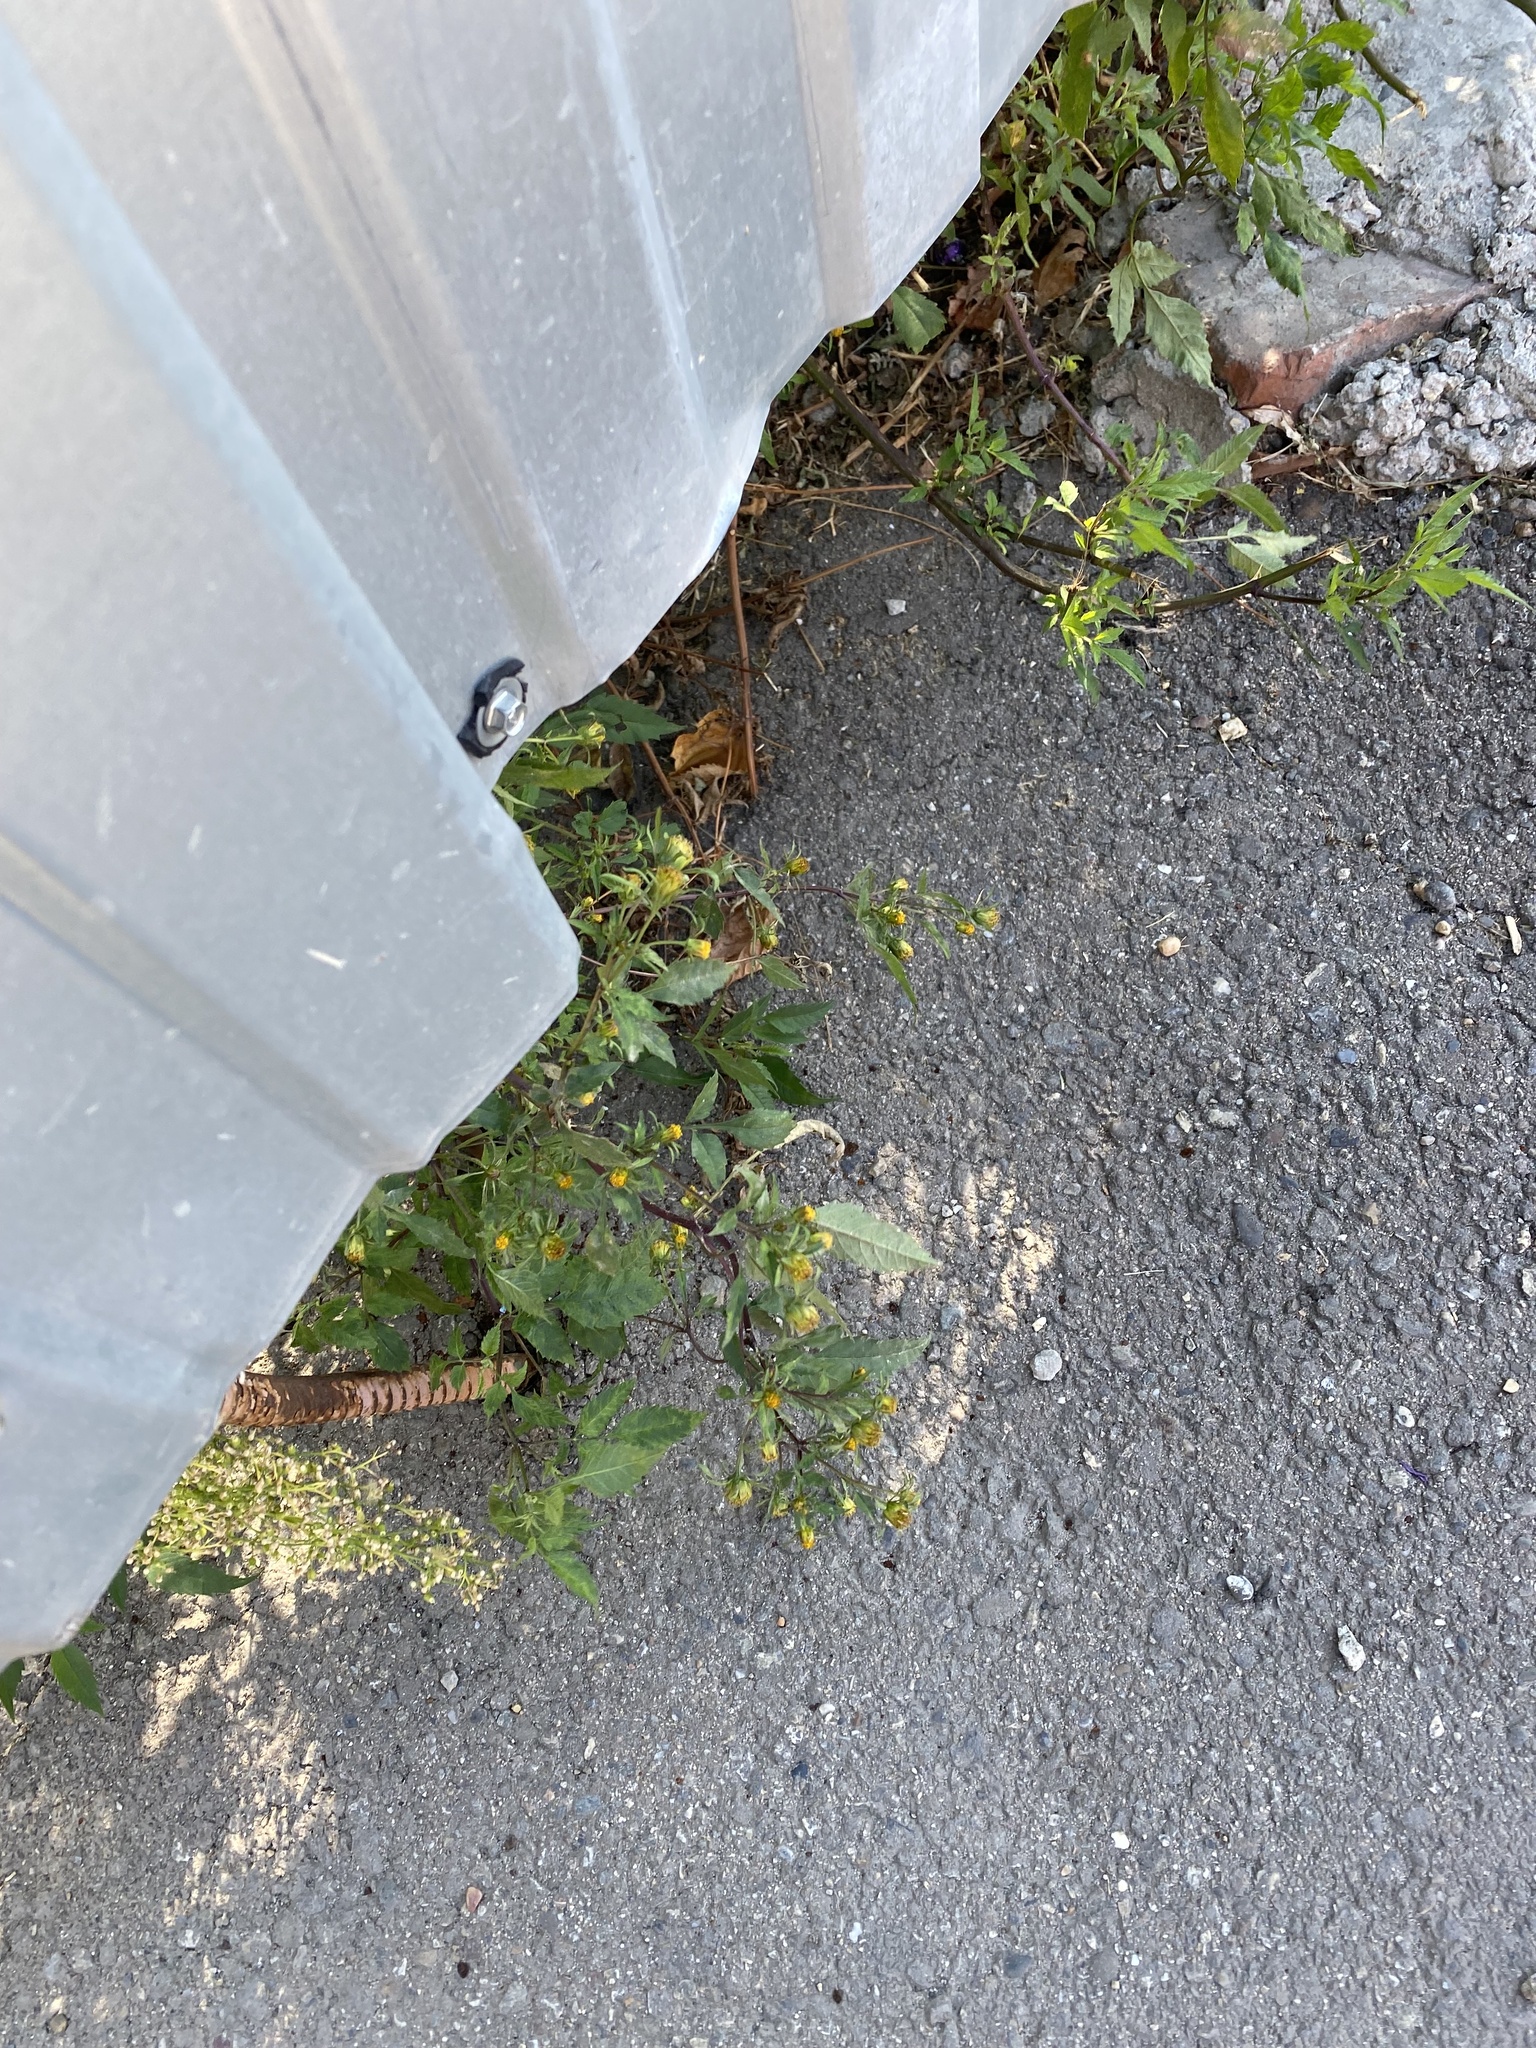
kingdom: Plantae
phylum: Tracheophyta
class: Magnoliopsida
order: Asterales
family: Asteraceae
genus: Bidens
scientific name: Bidens frondosa
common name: Beggarticks
